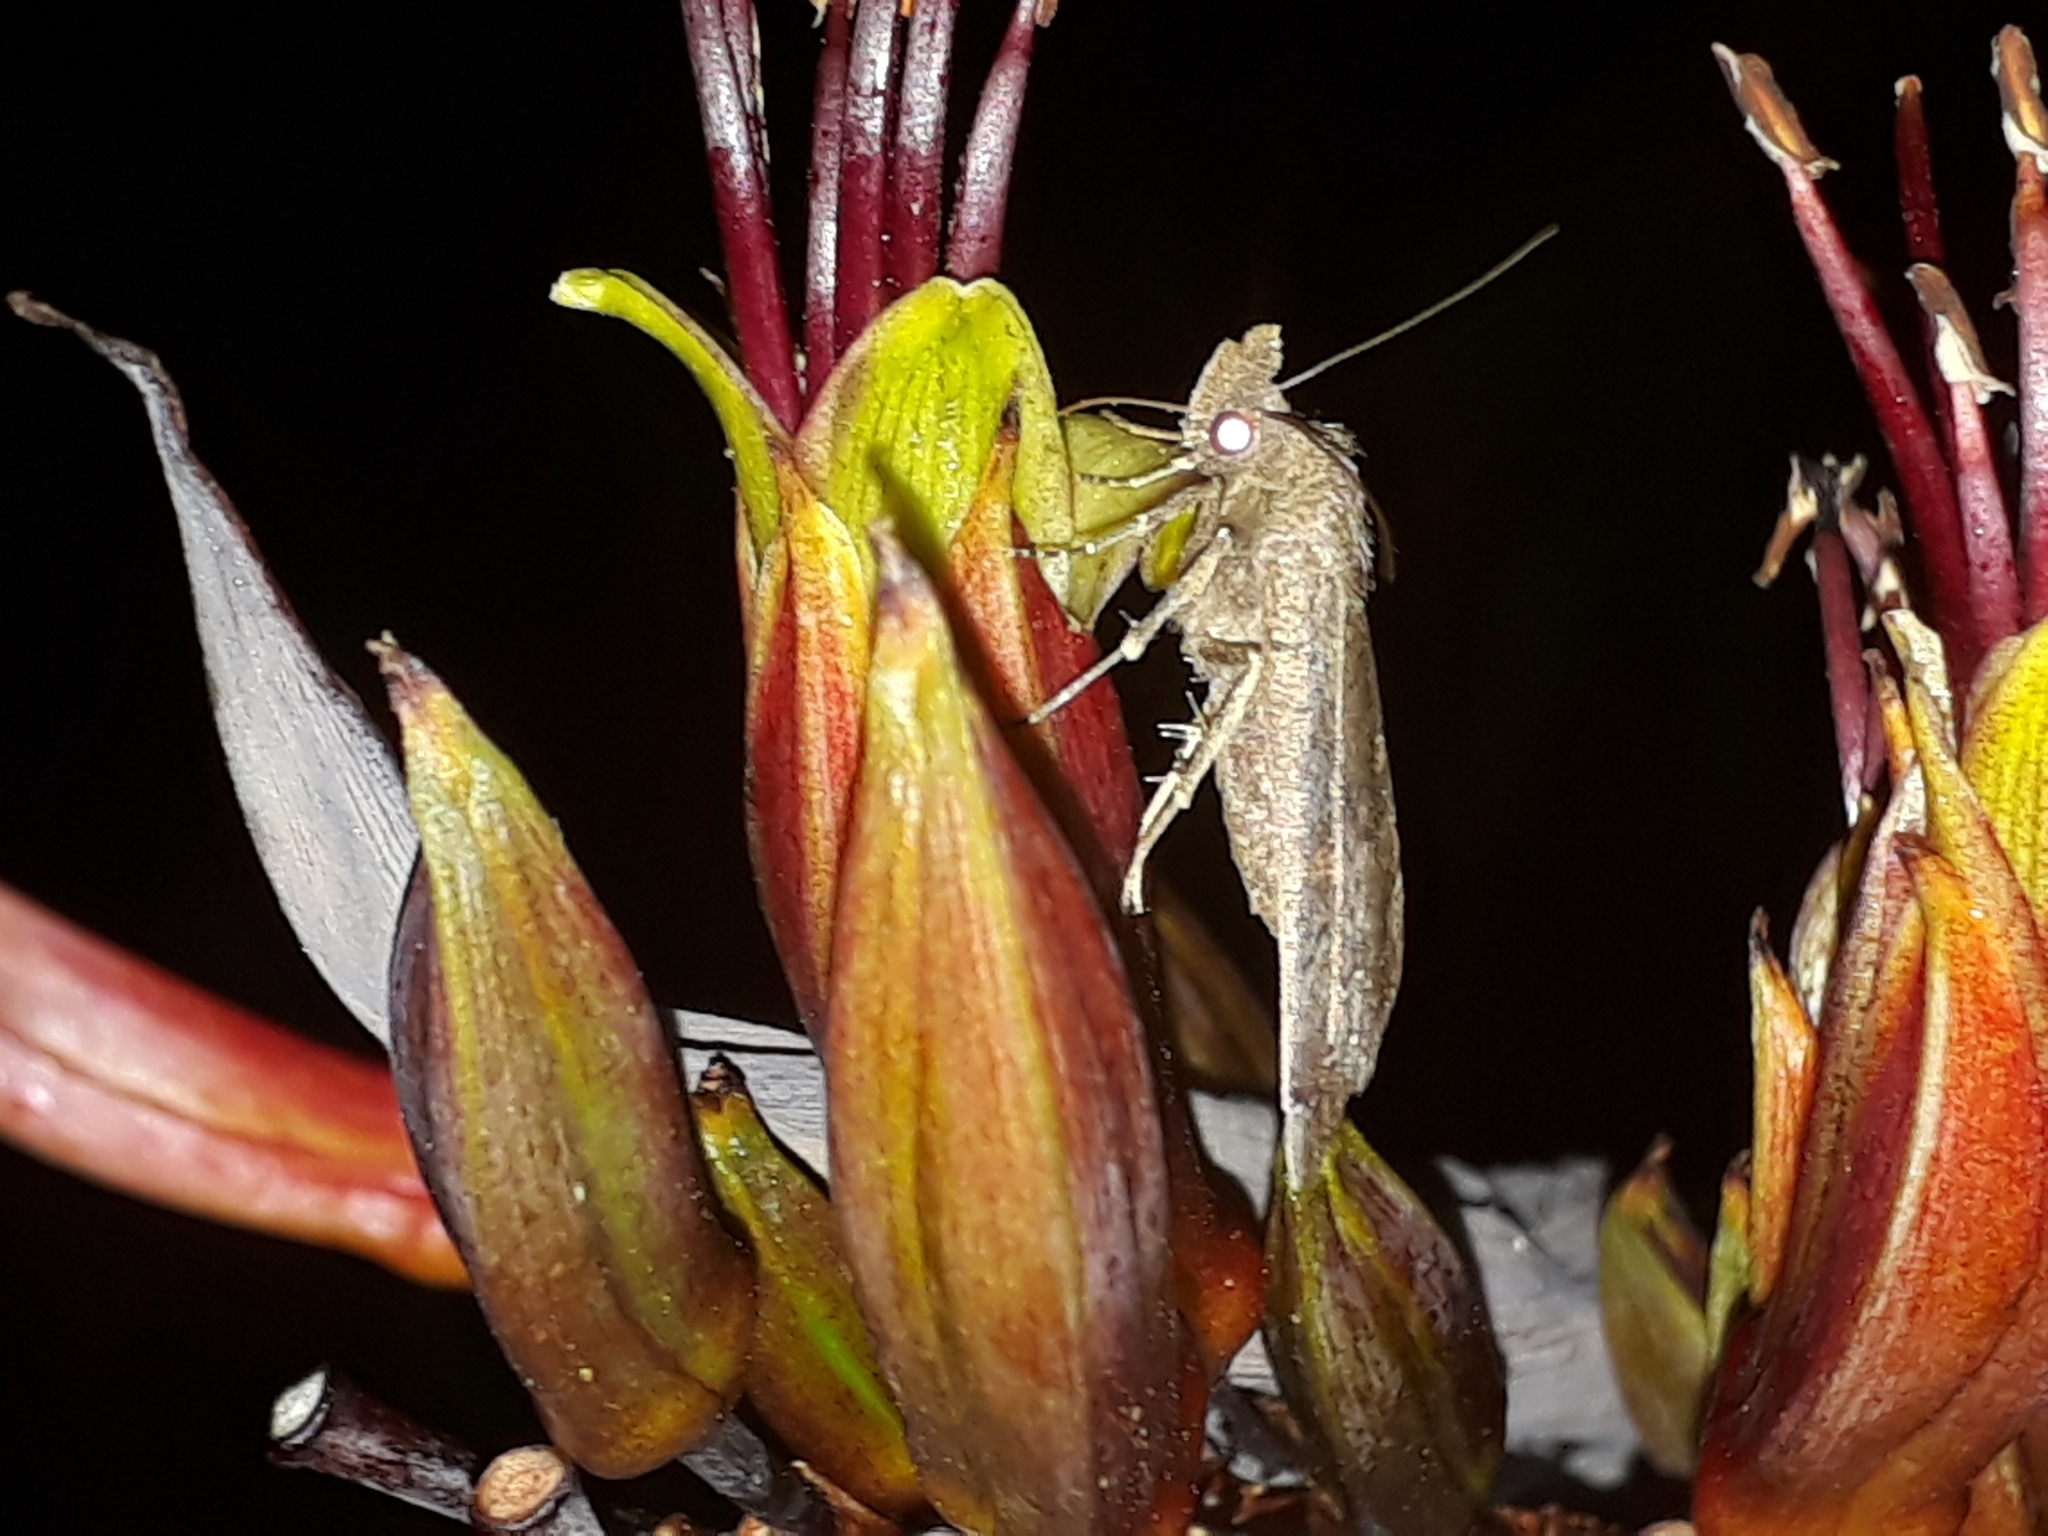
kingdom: Animalia
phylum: Arthropoda
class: Insecta
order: Lepidoptera
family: Erebidae
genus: Rhapsa
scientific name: Rhapsa scotosialis
